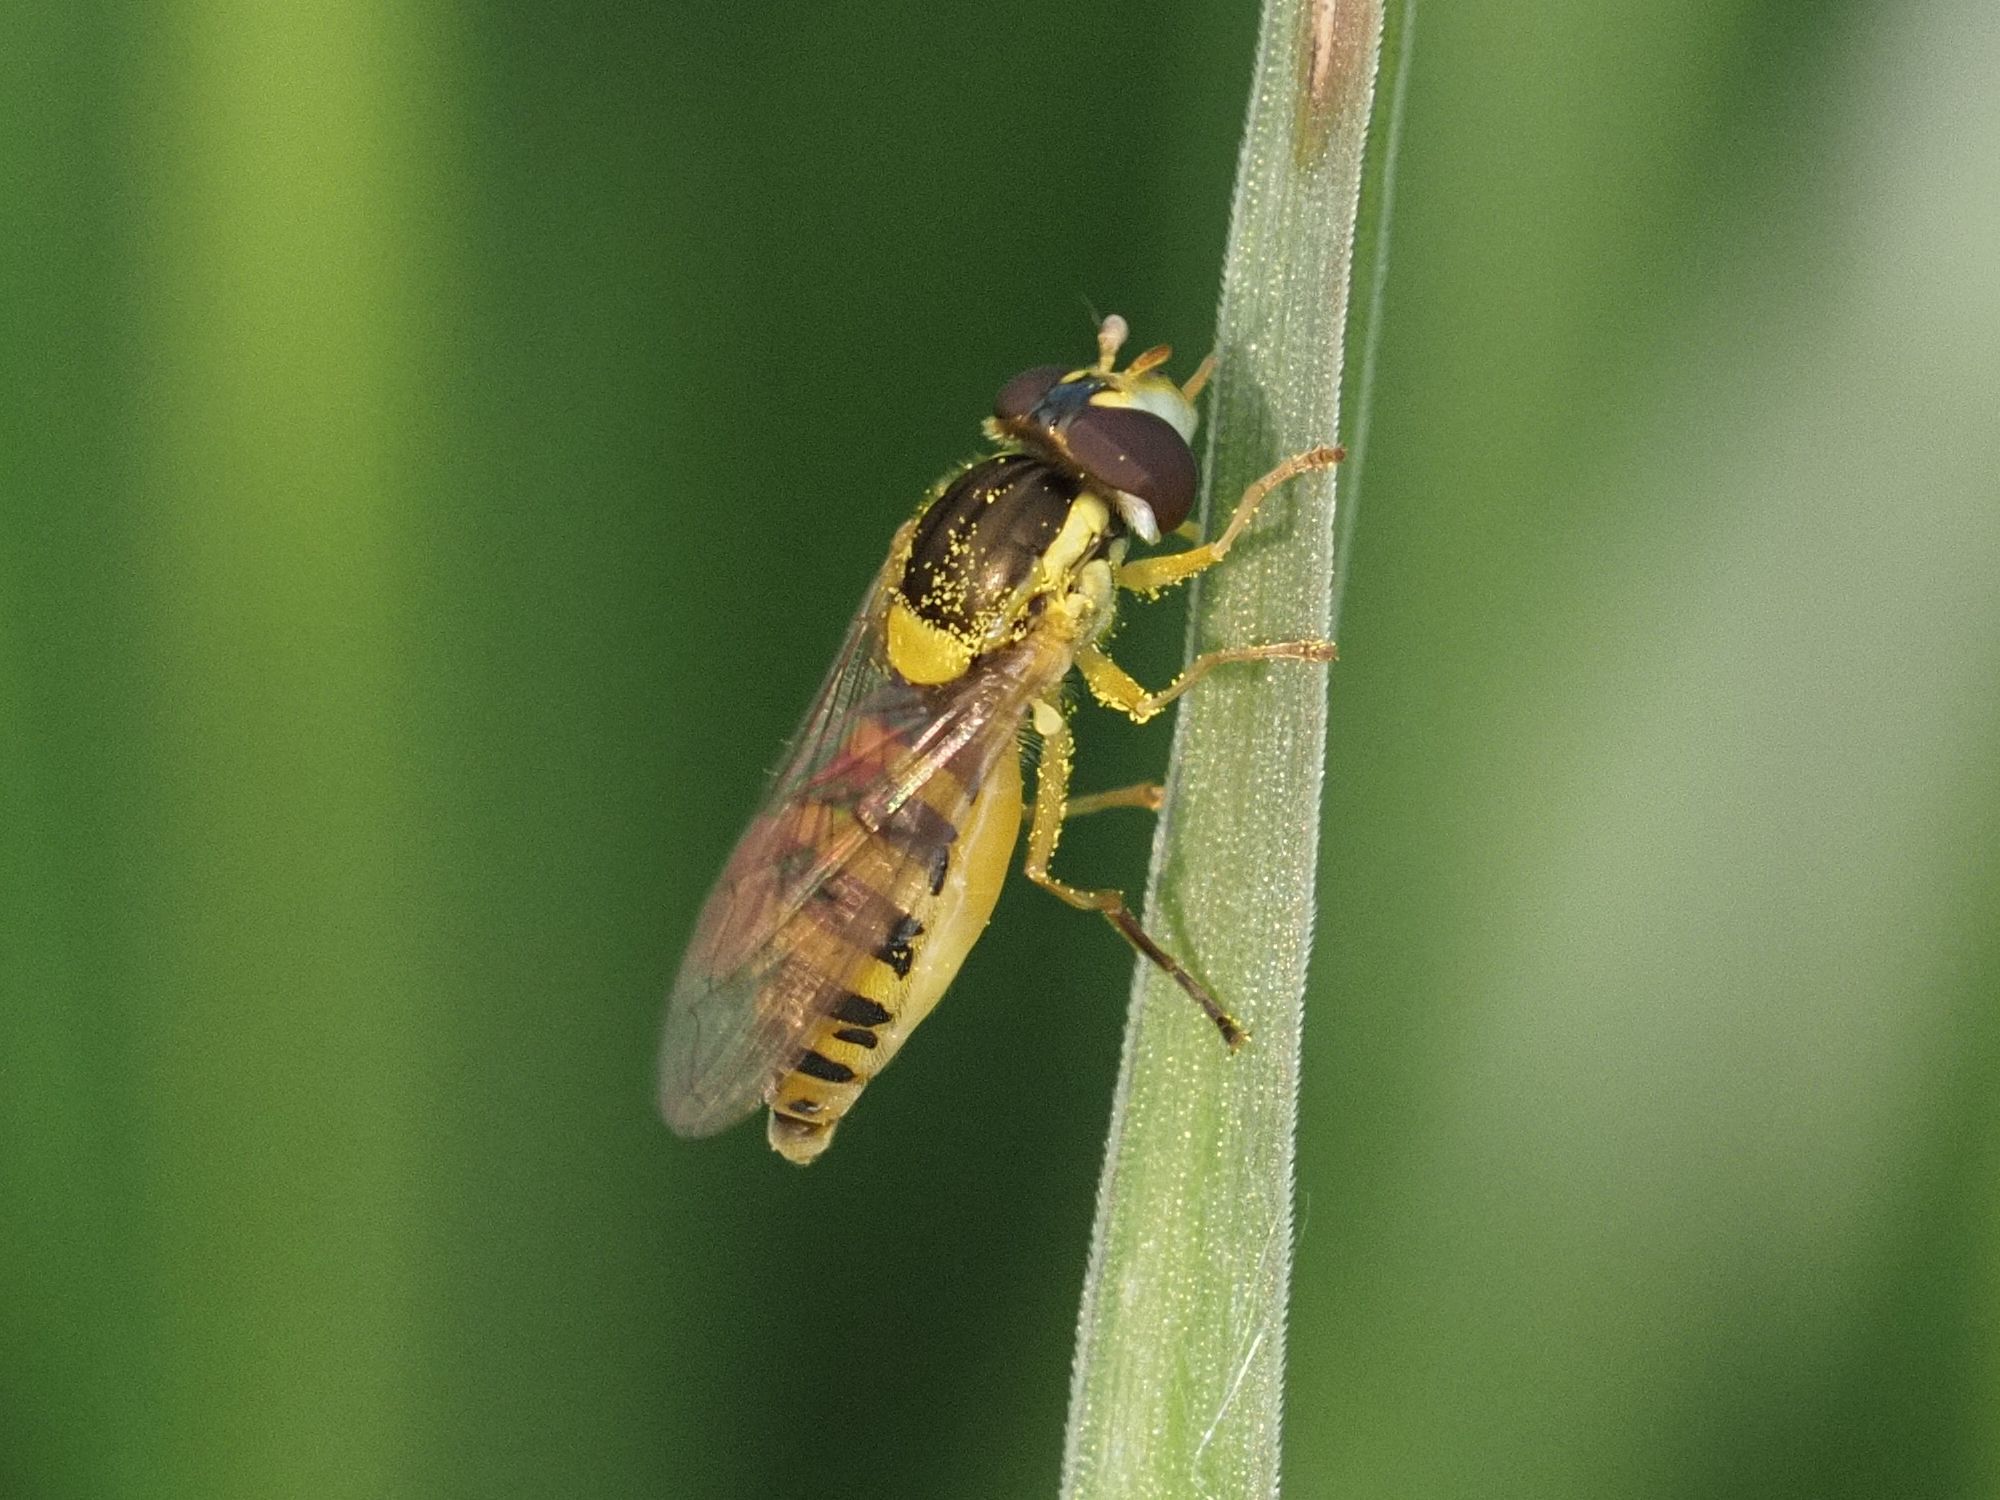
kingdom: Animalia
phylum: Arthropoda
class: Insecta
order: Diptera
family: Syrphidae
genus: Sphaerophoria
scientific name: Sphaerophoria
